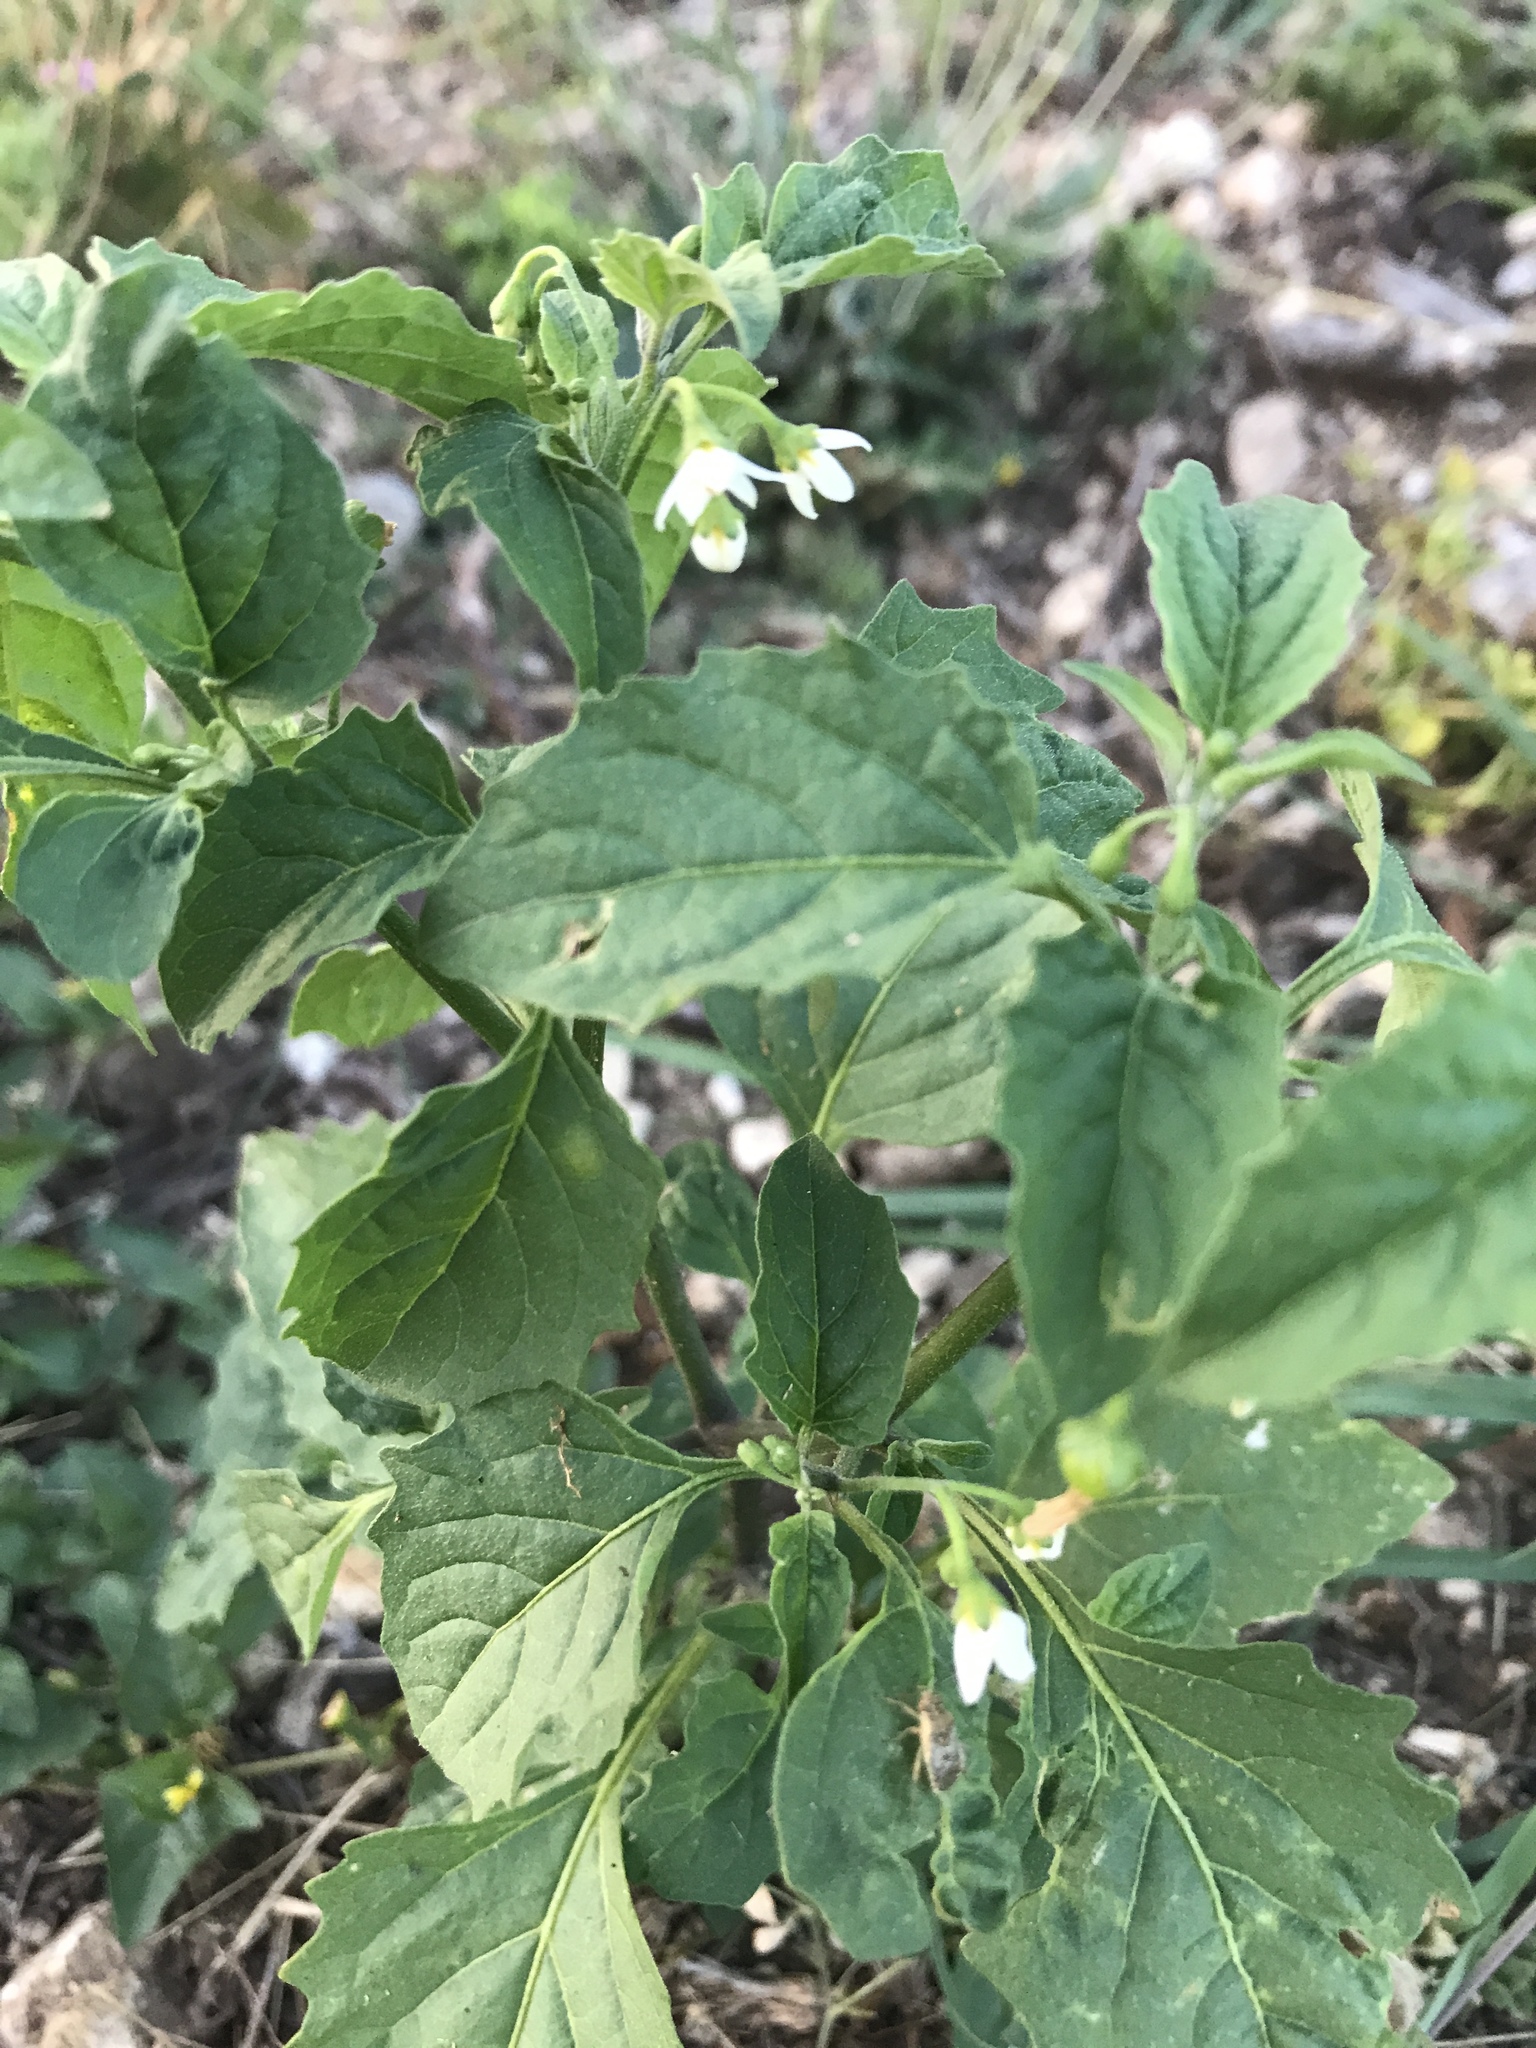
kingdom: Plantae
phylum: Tracheophyta
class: Magnoliopsida
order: Solanales
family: Solanaceae
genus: Solanum
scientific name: Solanum emulans
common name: Eastern black nightshade
